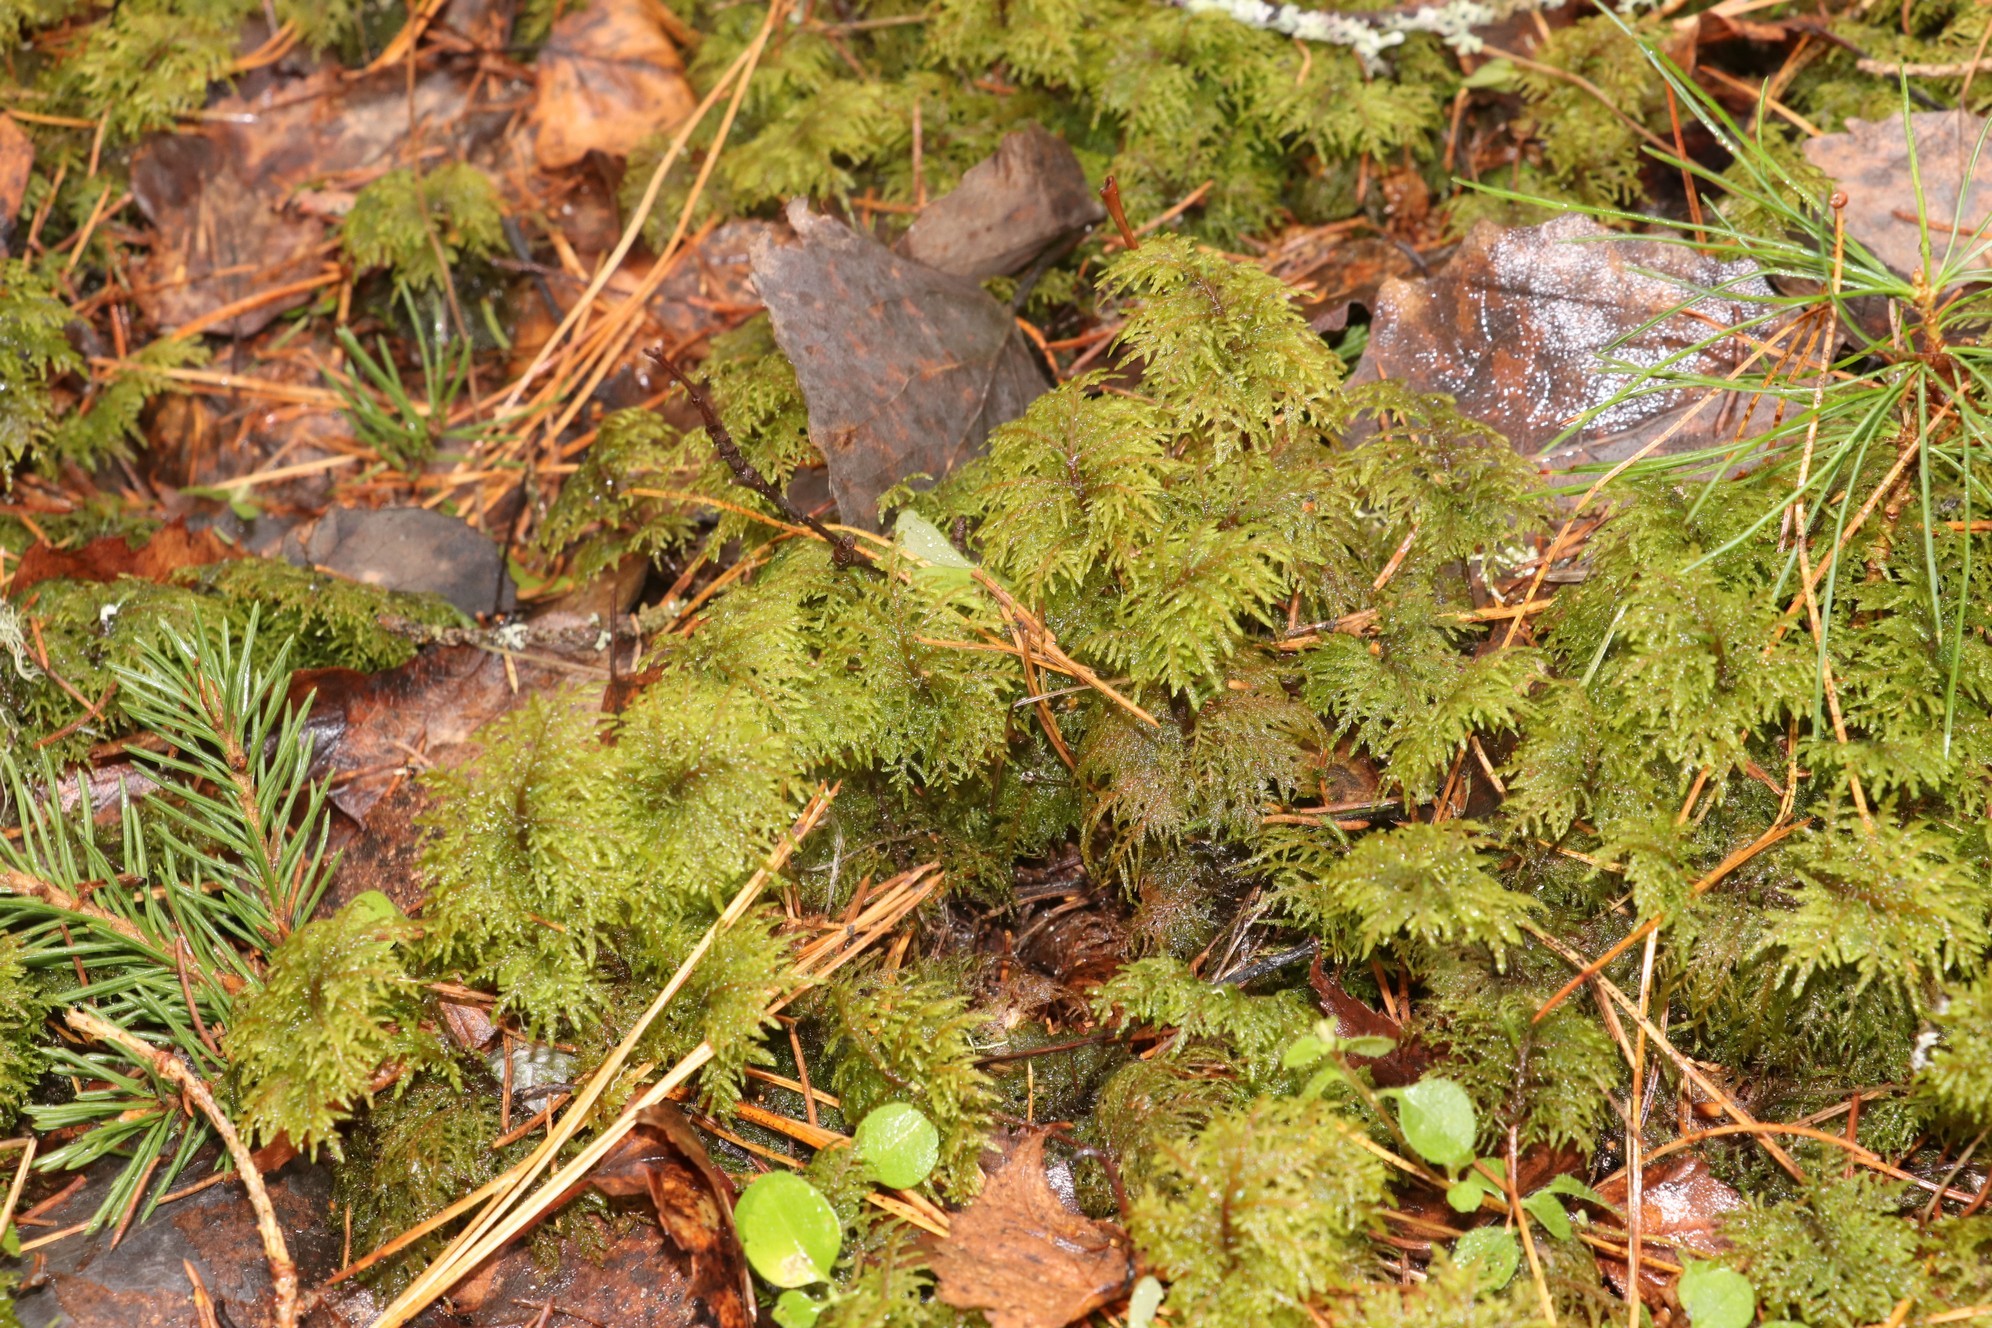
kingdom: Plantae
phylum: Bryophyta
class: Bryopsida
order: Hypnales
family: Hylocomiaceae
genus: Hylocomium
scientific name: Hylocomium splendens
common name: Stairstep moss
